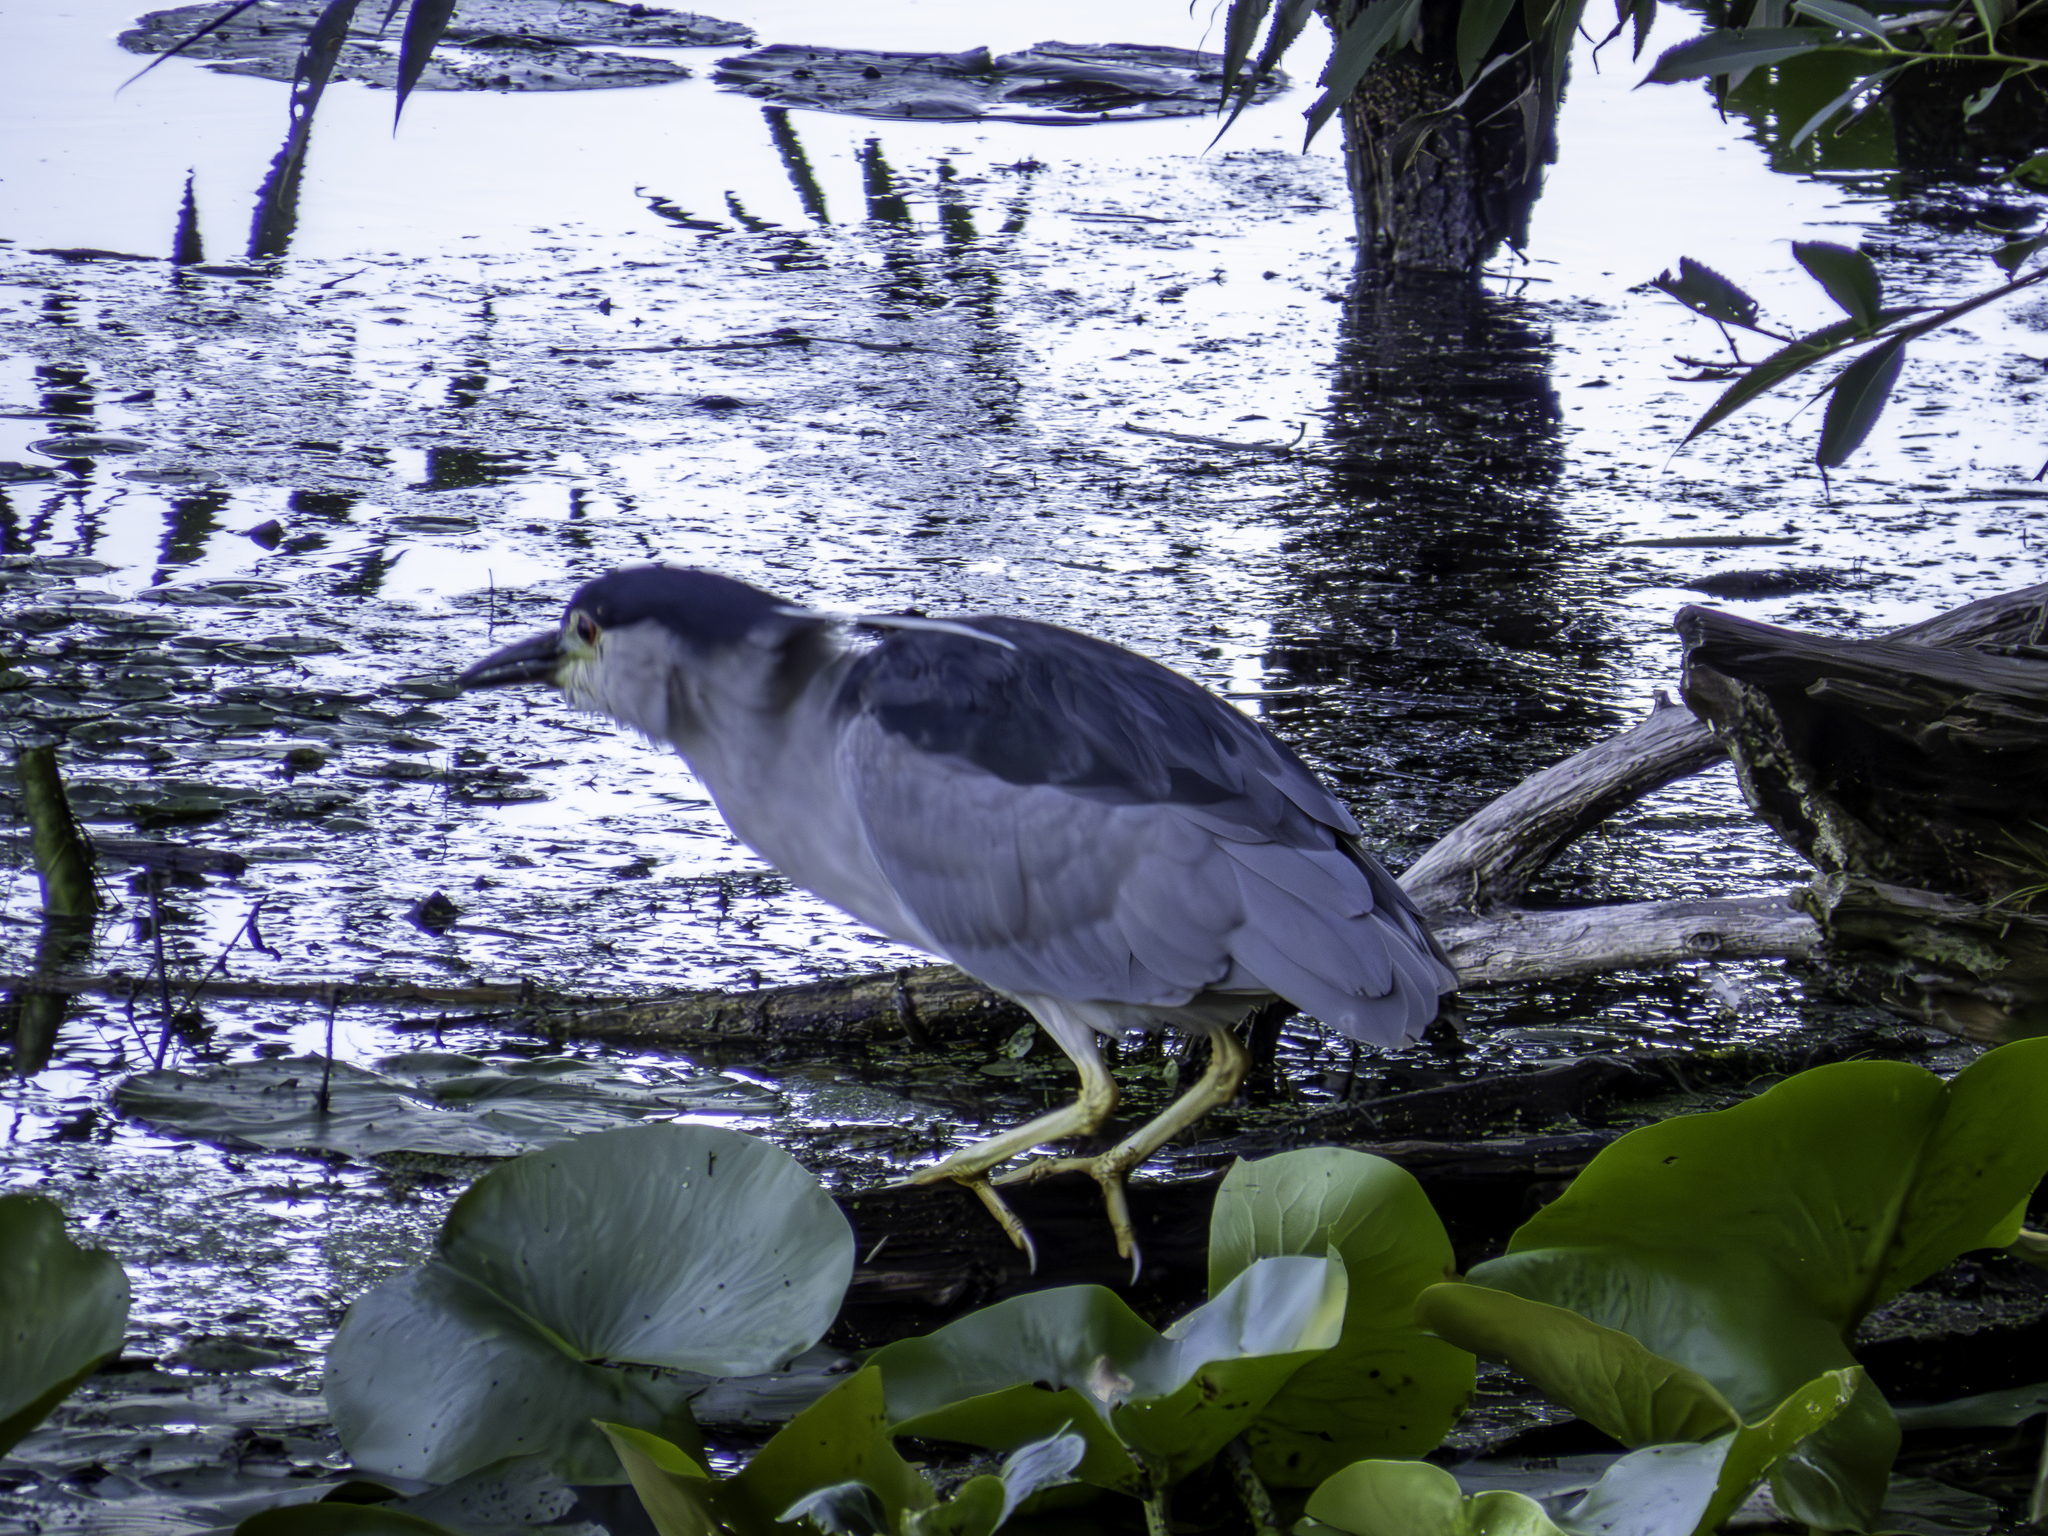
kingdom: Animalia
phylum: Chordata
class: Aves
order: Pelecaniformes
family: Ardeidae
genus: Nycticorax
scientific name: Nycticorax nycticorax
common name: Black-crowned night heron
